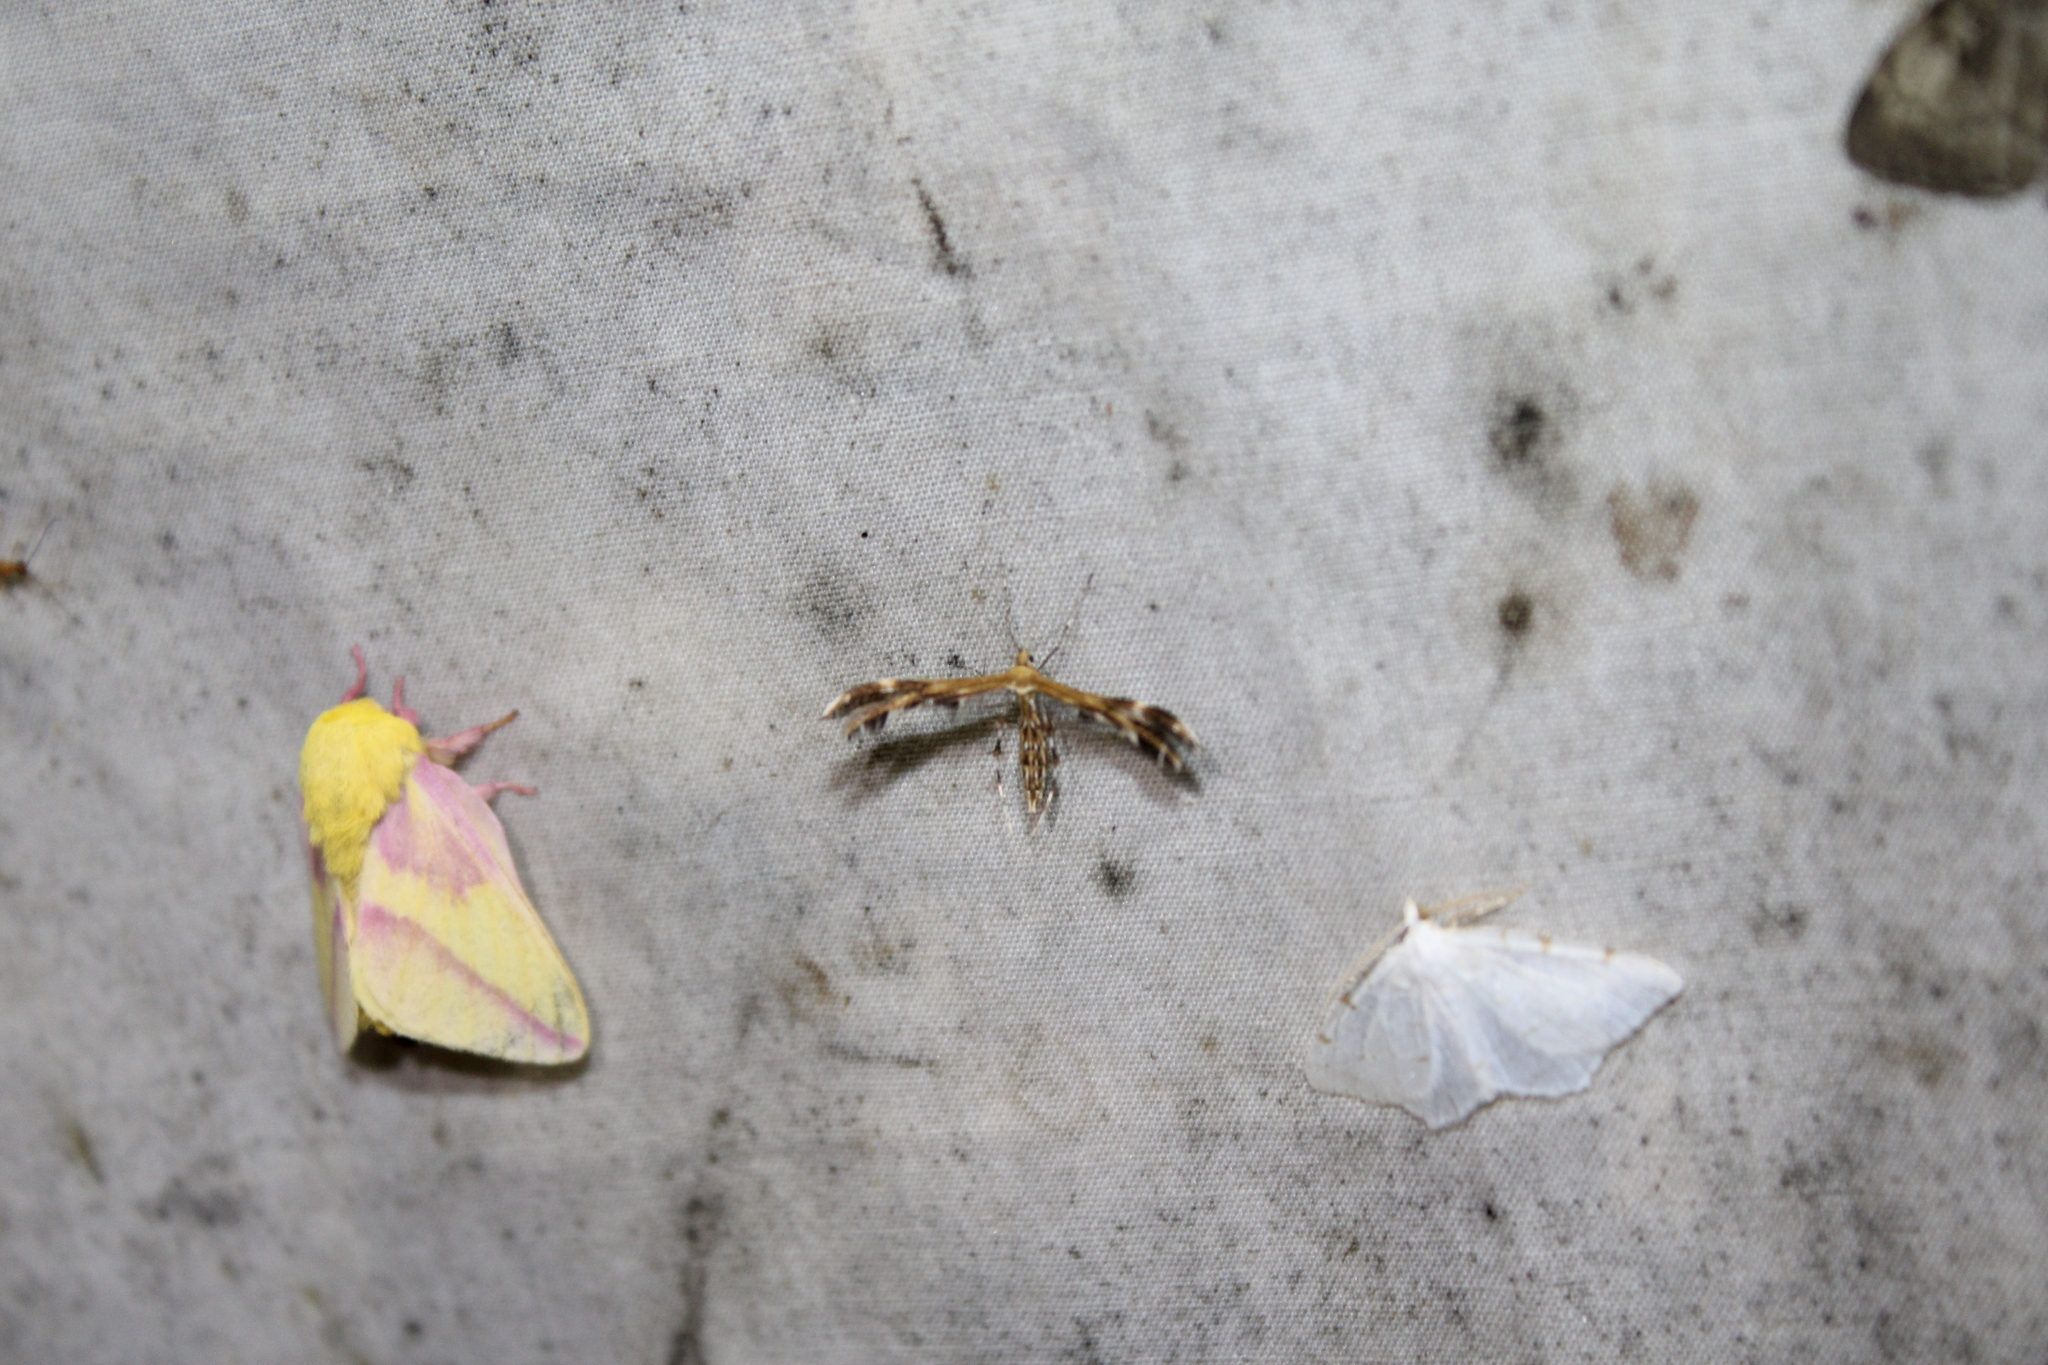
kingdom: Animalia
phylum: Arthropoda
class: Insecta
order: Lepidoptera
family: Pterophoridae
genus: Dejongia
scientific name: Dejongia lobidactylus
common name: Lobed plume moth
